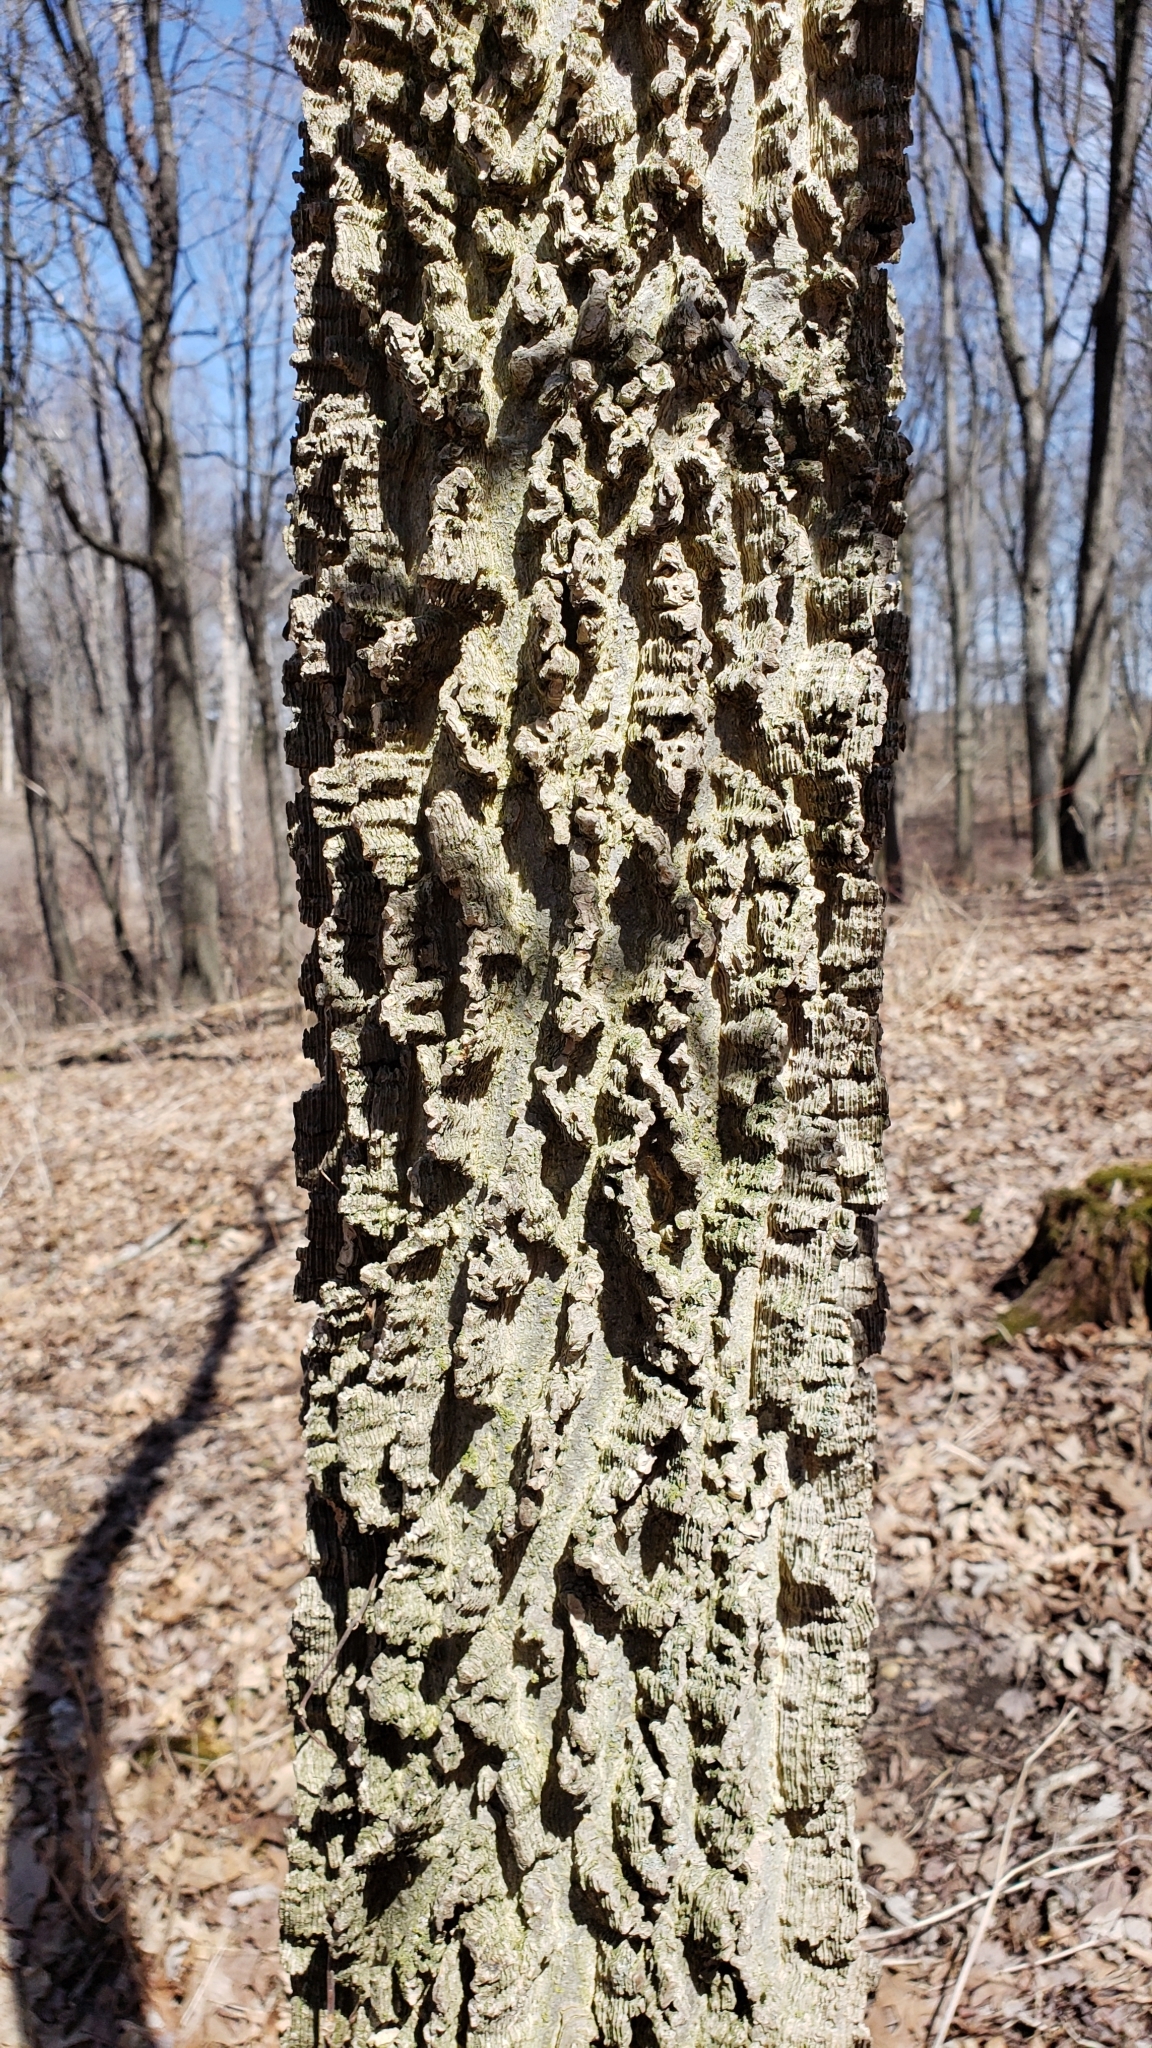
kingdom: Plantae
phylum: Tracheophyta
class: Magnoliopsida
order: Rosales
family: Cannabaceae
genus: Celtis
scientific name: Celtis occidentalis
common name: Common hackberry
